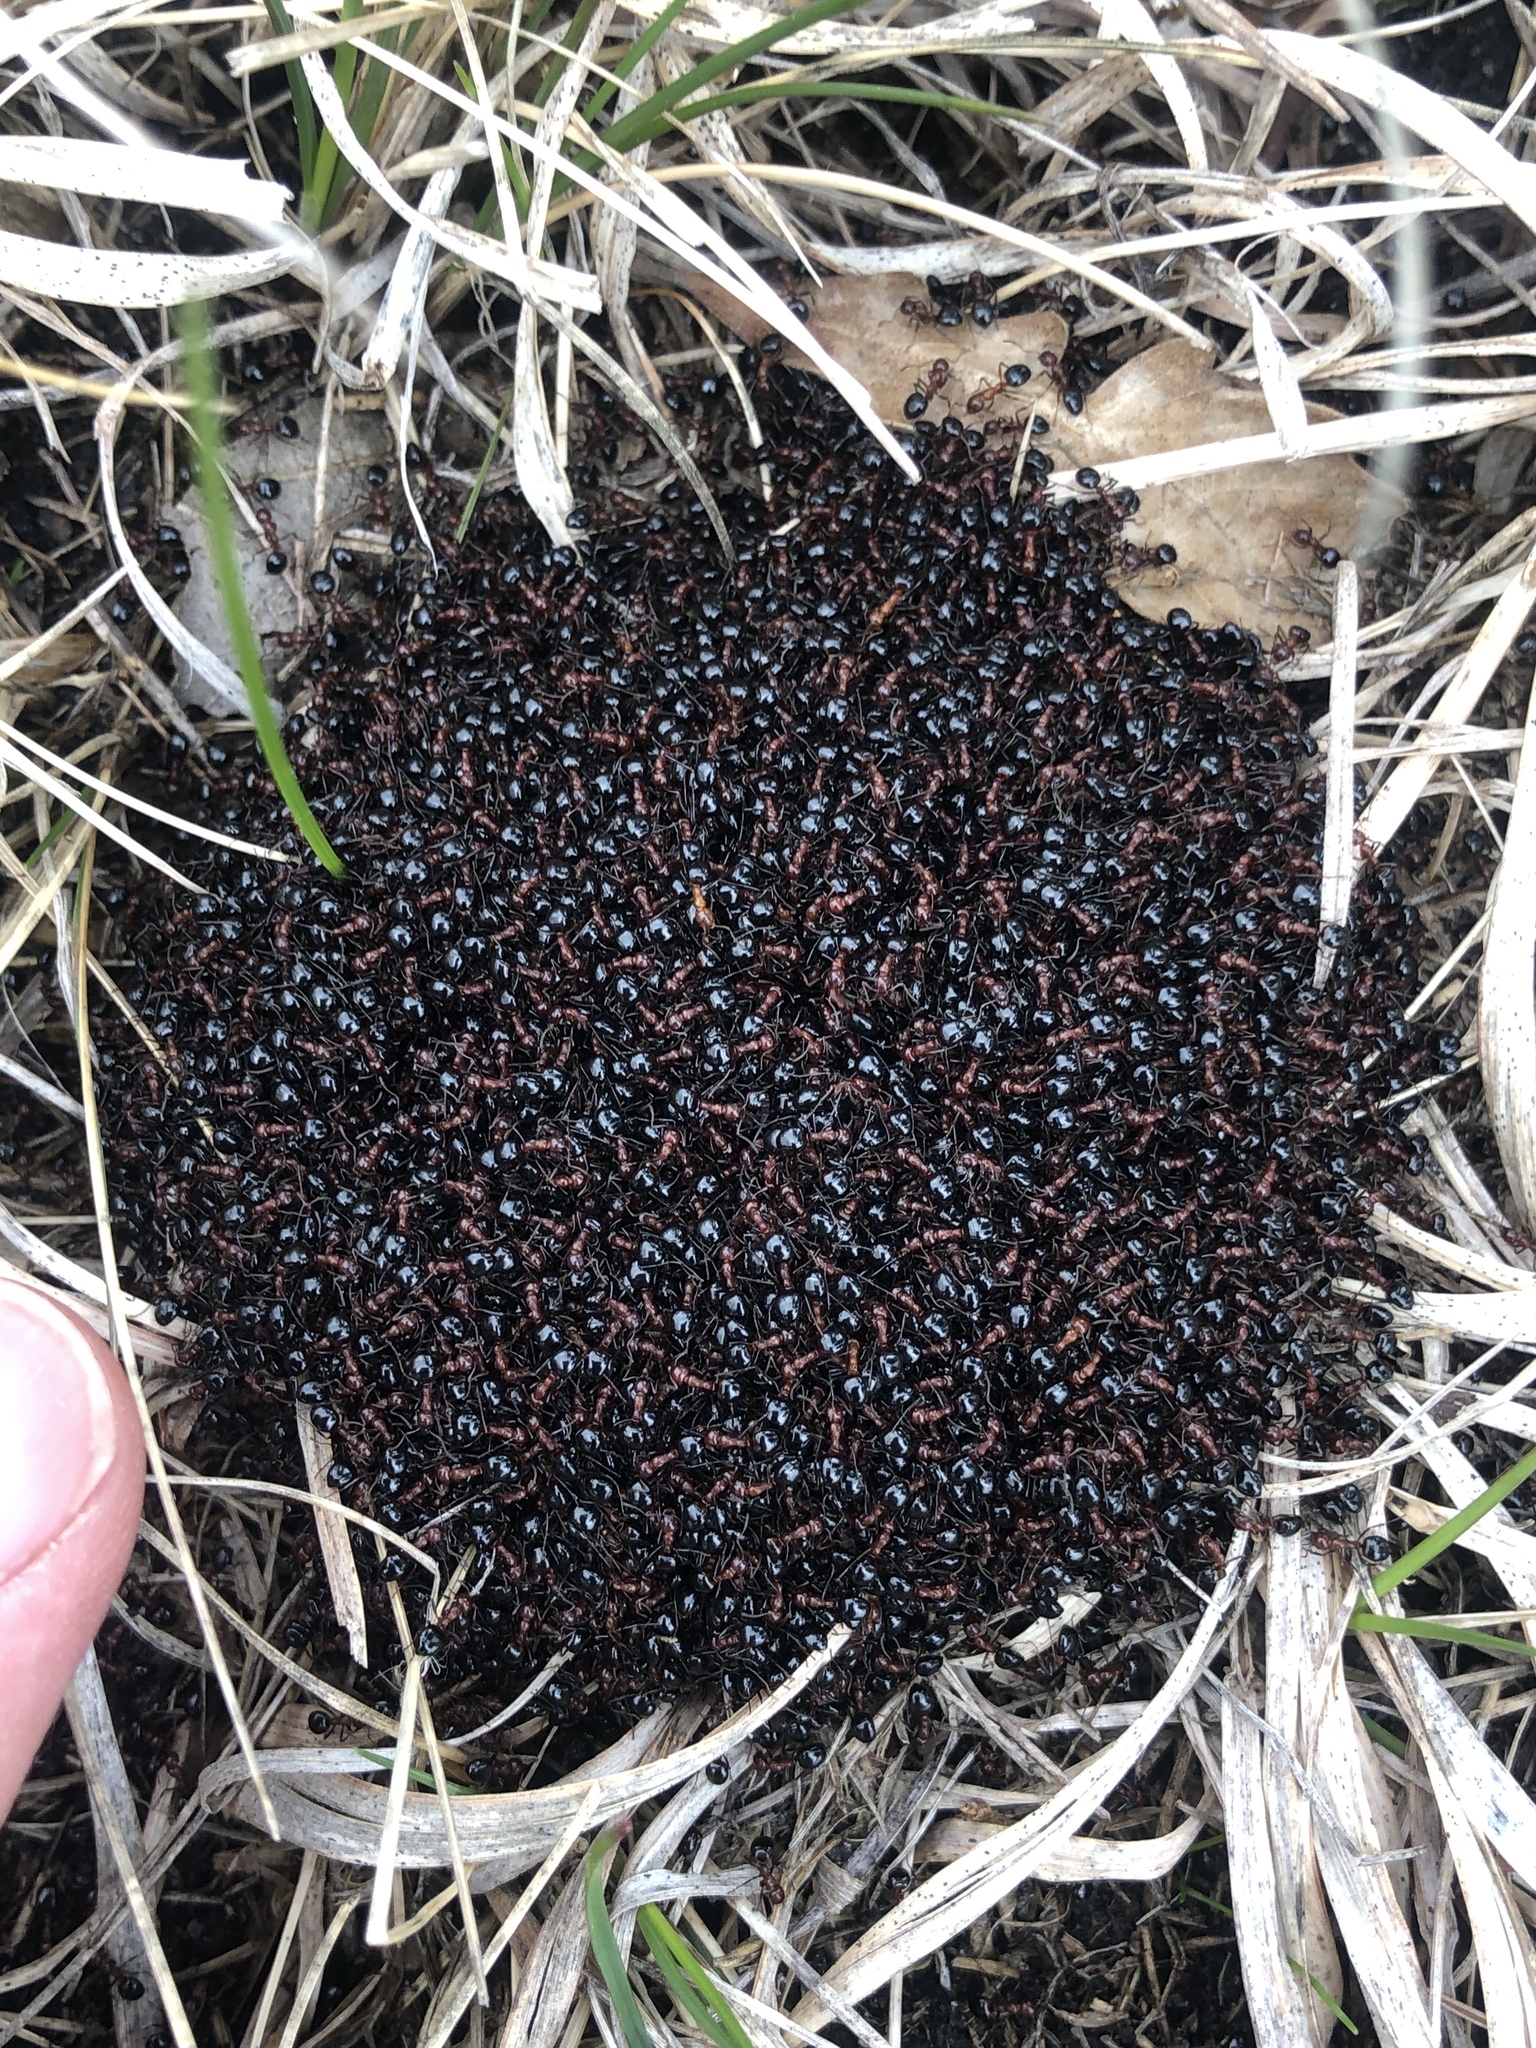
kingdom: Animalia
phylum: Arthropoda
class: Insecta
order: Hymenoptera
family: Formicidae
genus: Dolichoderus
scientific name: Dolichoderus mariae
